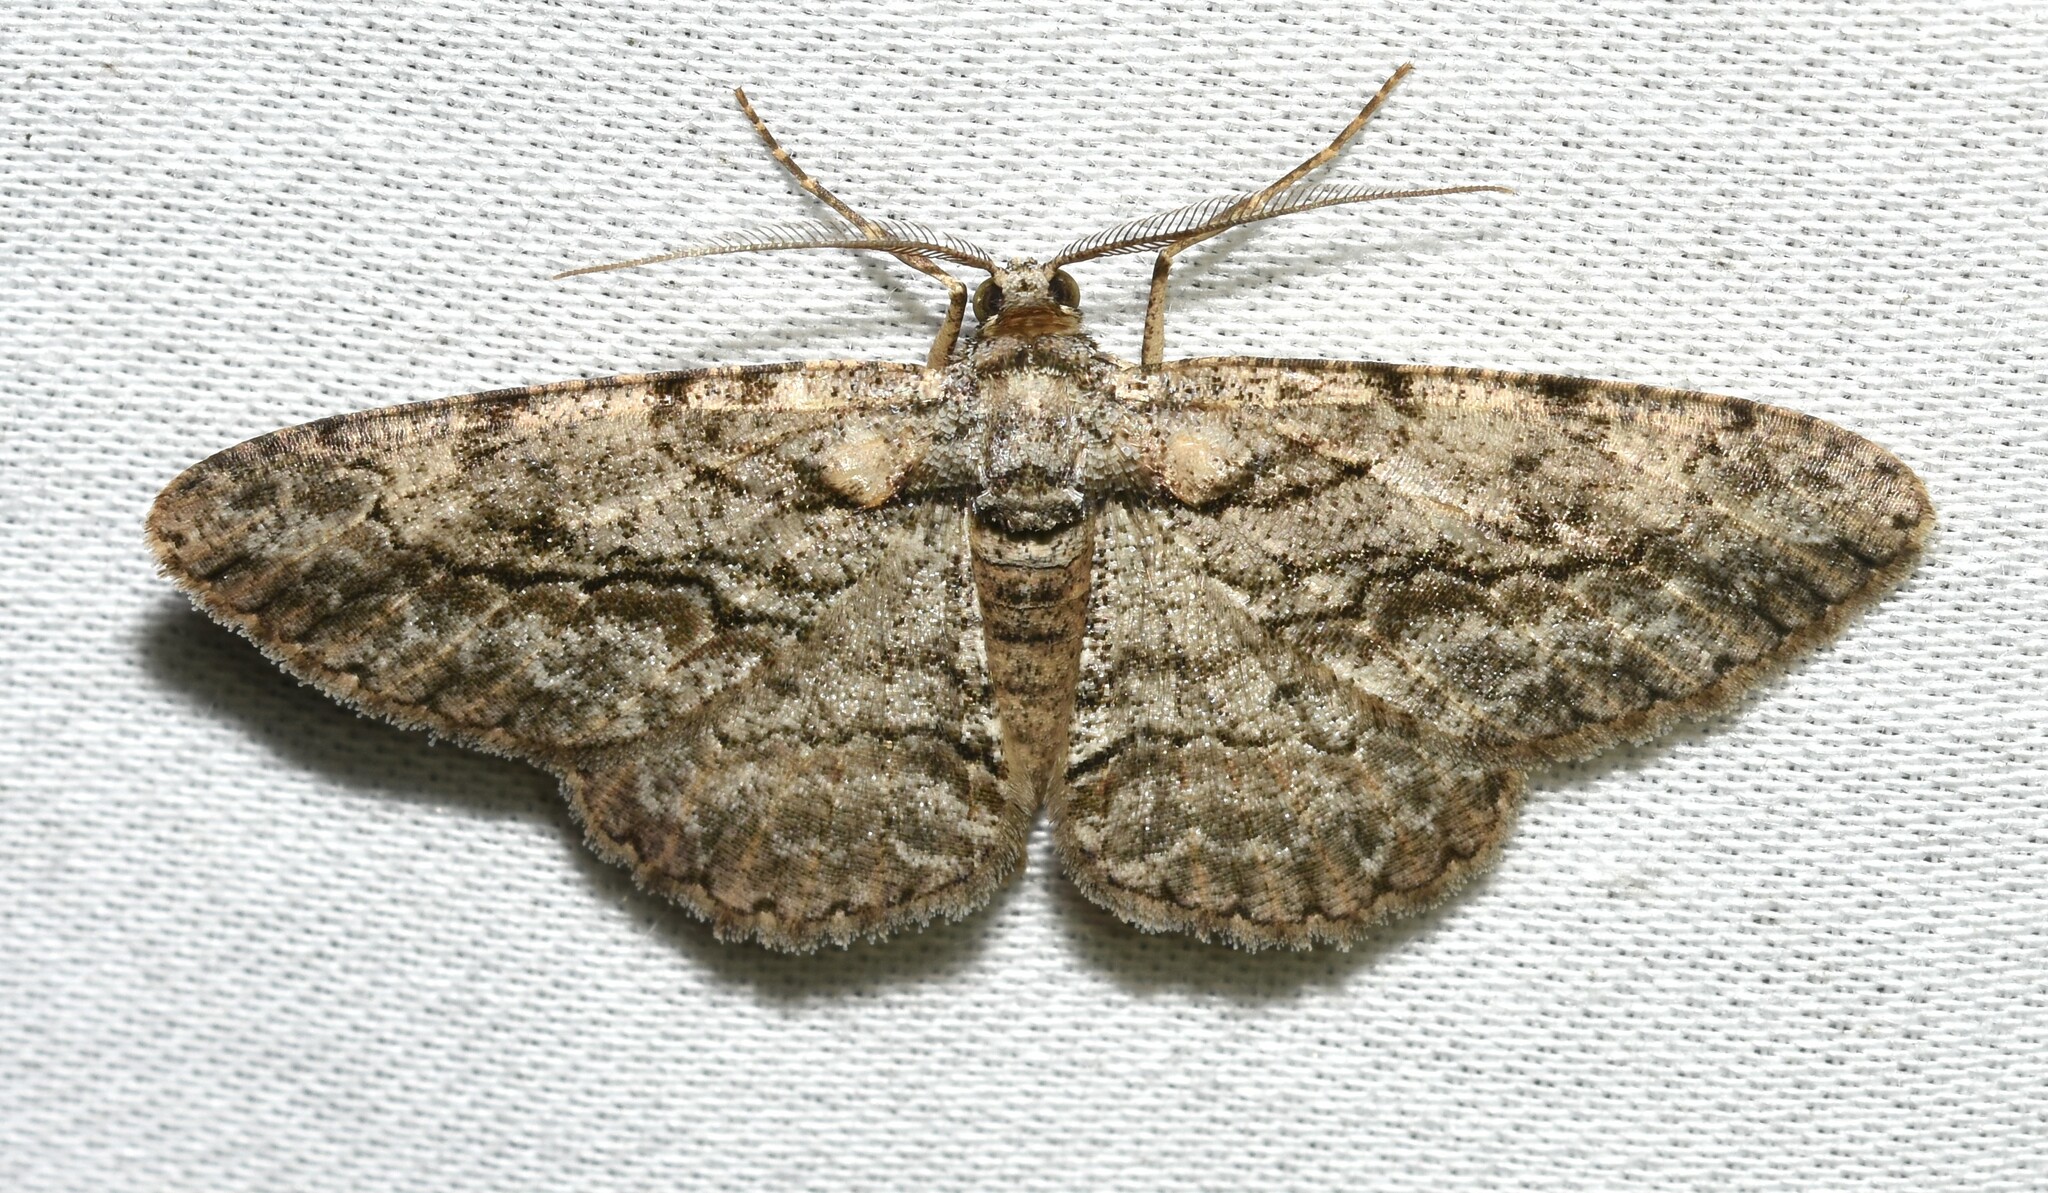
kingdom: Animalia
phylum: Arthropoda
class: Insecta
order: Lepidoptera
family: Geometridae
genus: Anavitrinella
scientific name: Anavitrinella pampinaria
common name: Common gray
